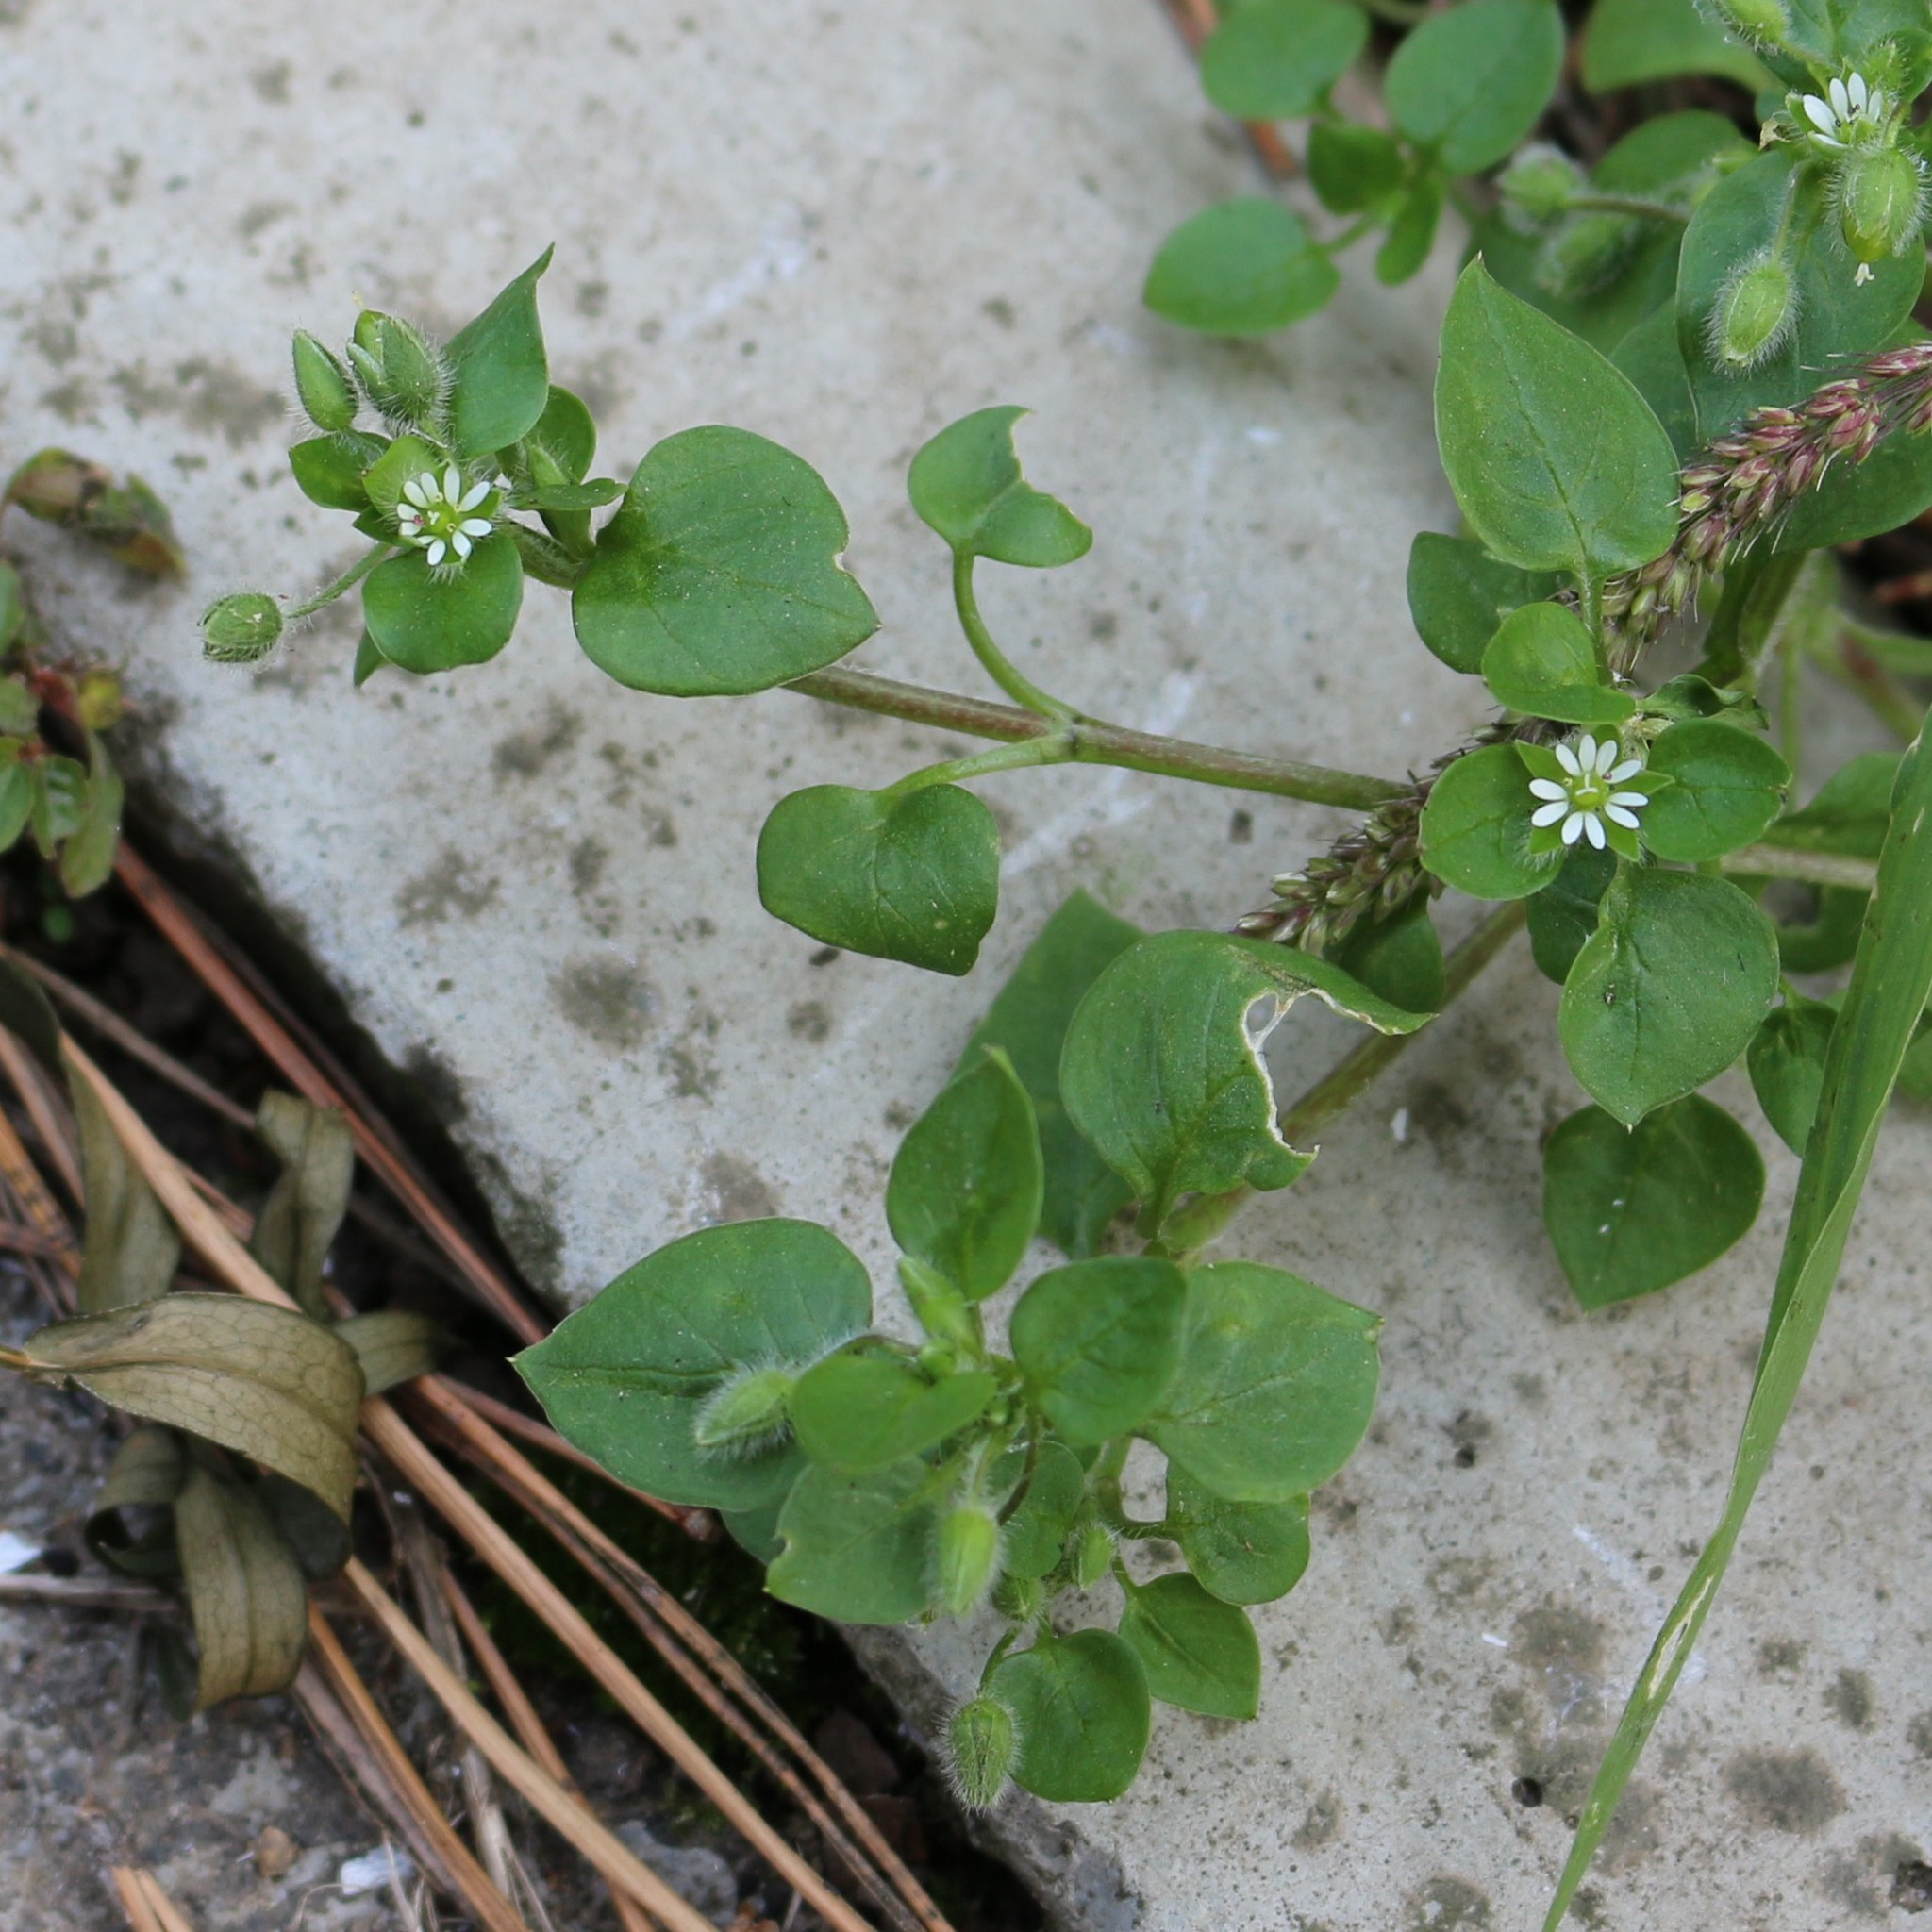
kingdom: Plantae
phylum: Tracheophyta
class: Magnoliopsida
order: Caryophyllales
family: Caryophyllaceae
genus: Stellaria
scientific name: Stellaria media
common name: Common chickweed
